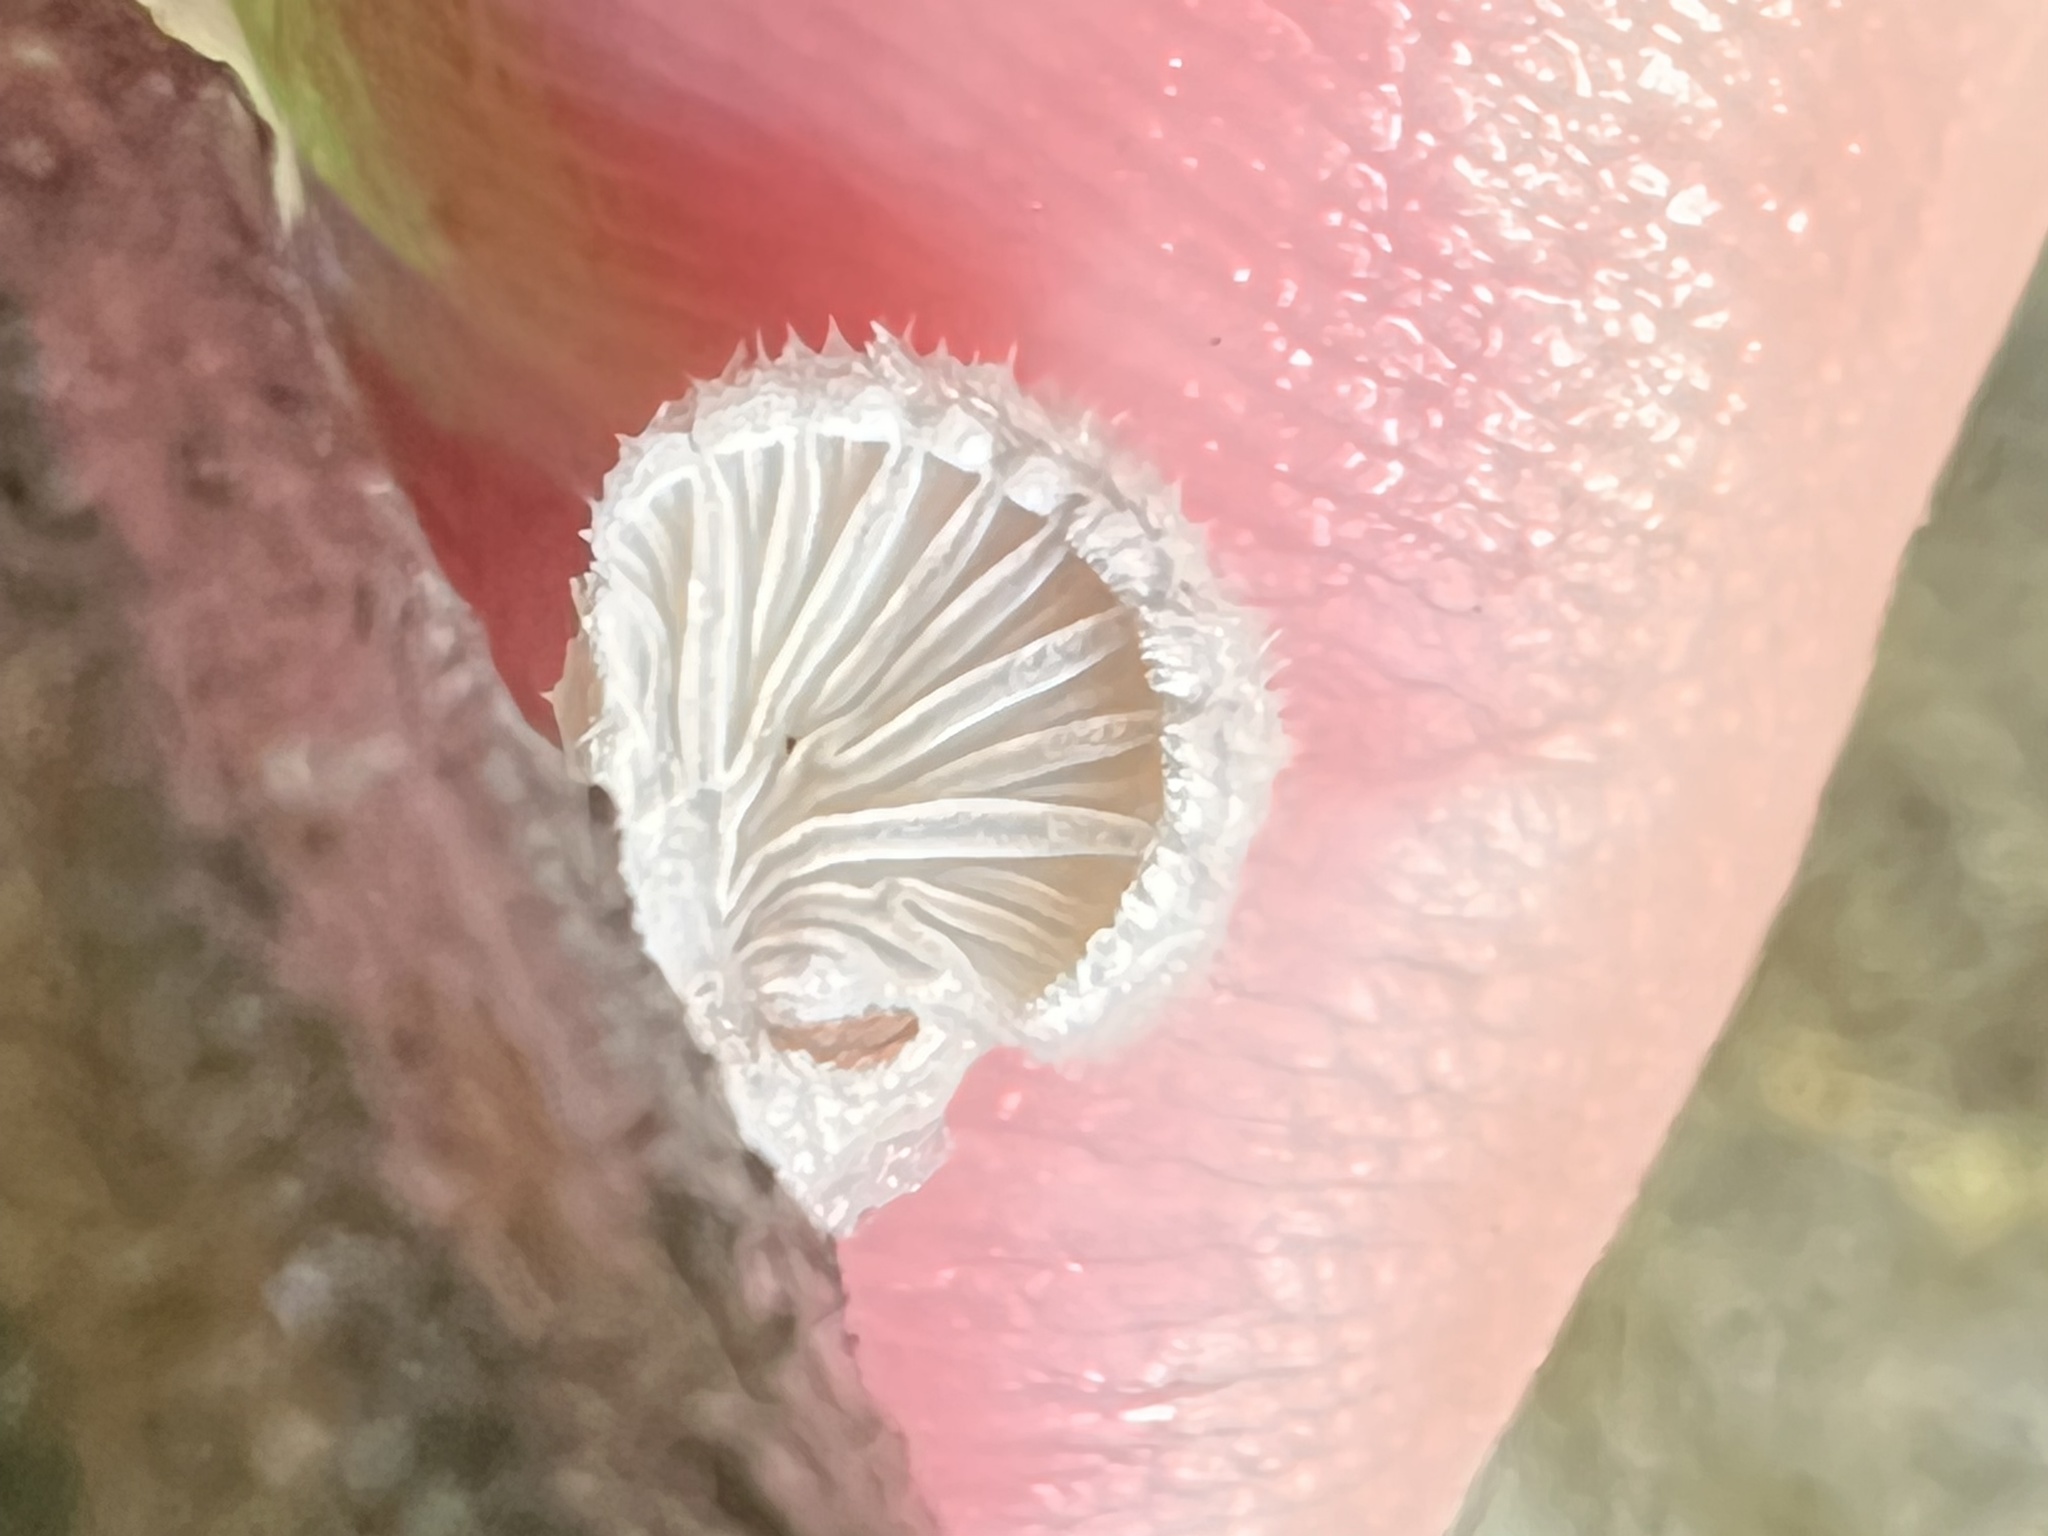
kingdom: Fungi
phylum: Basidiomycota
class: Agaricomycetes
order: Agaricales
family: Schizophyllaceae
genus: Schizophyllum
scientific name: Schizophyllum commune
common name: Common porecrust
